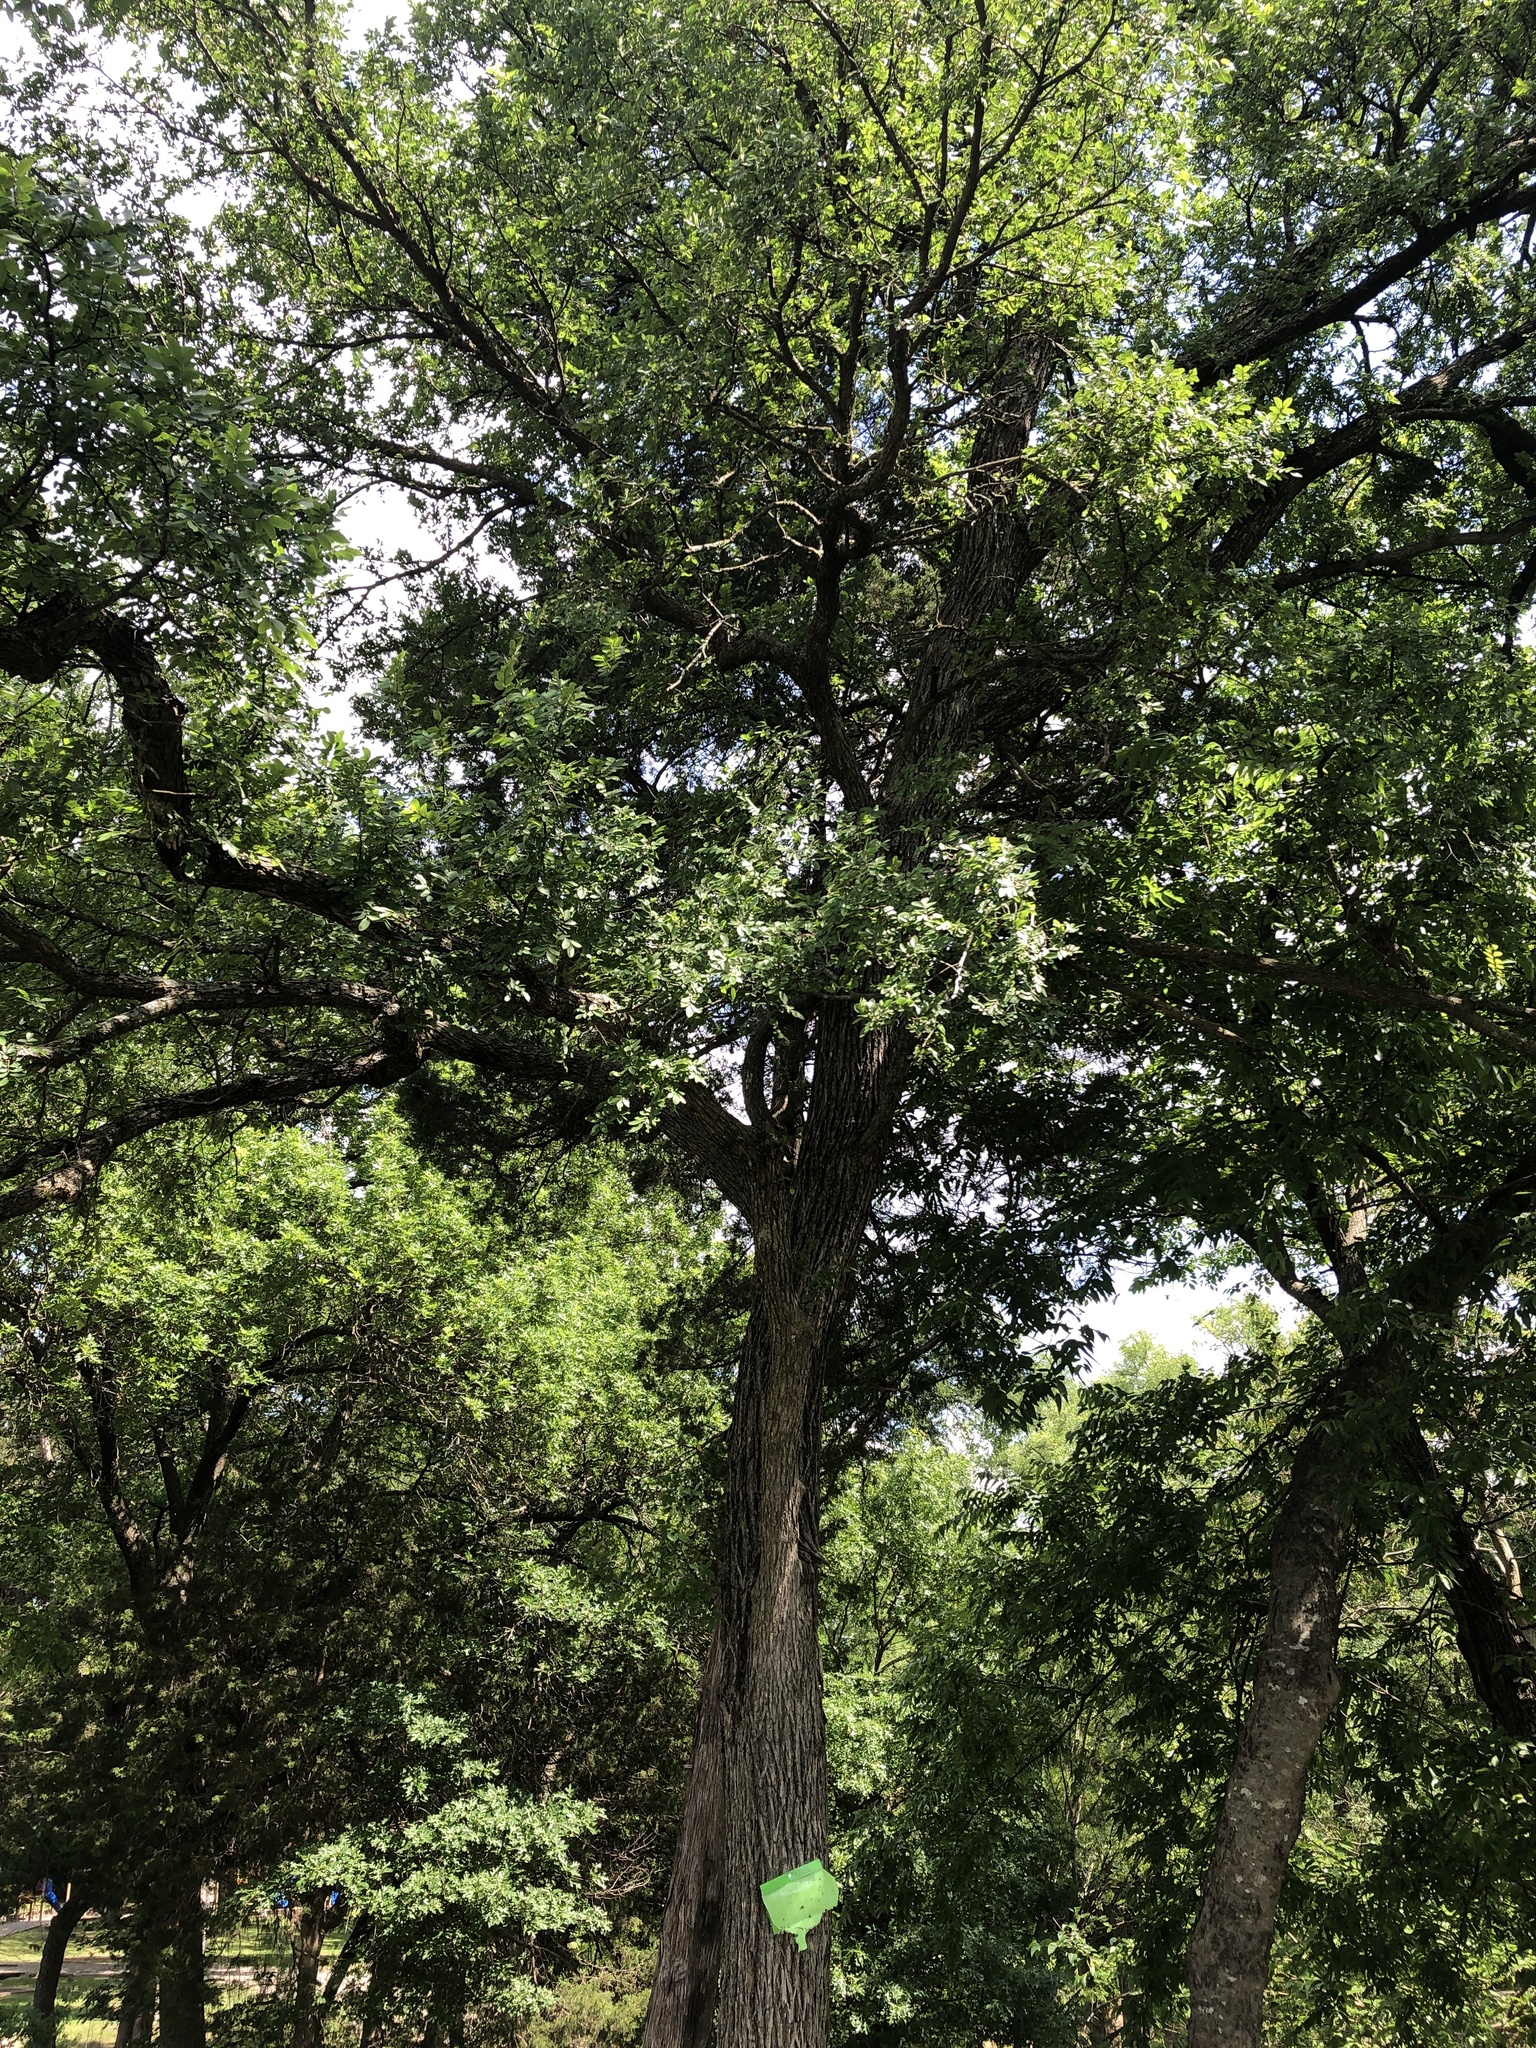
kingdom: Plantae
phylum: Tracheophyta
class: Magnoliopsida
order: Rosales
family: Ulmaceae
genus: Ulmus
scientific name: Ulmus crassifolia
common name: Basket elm
